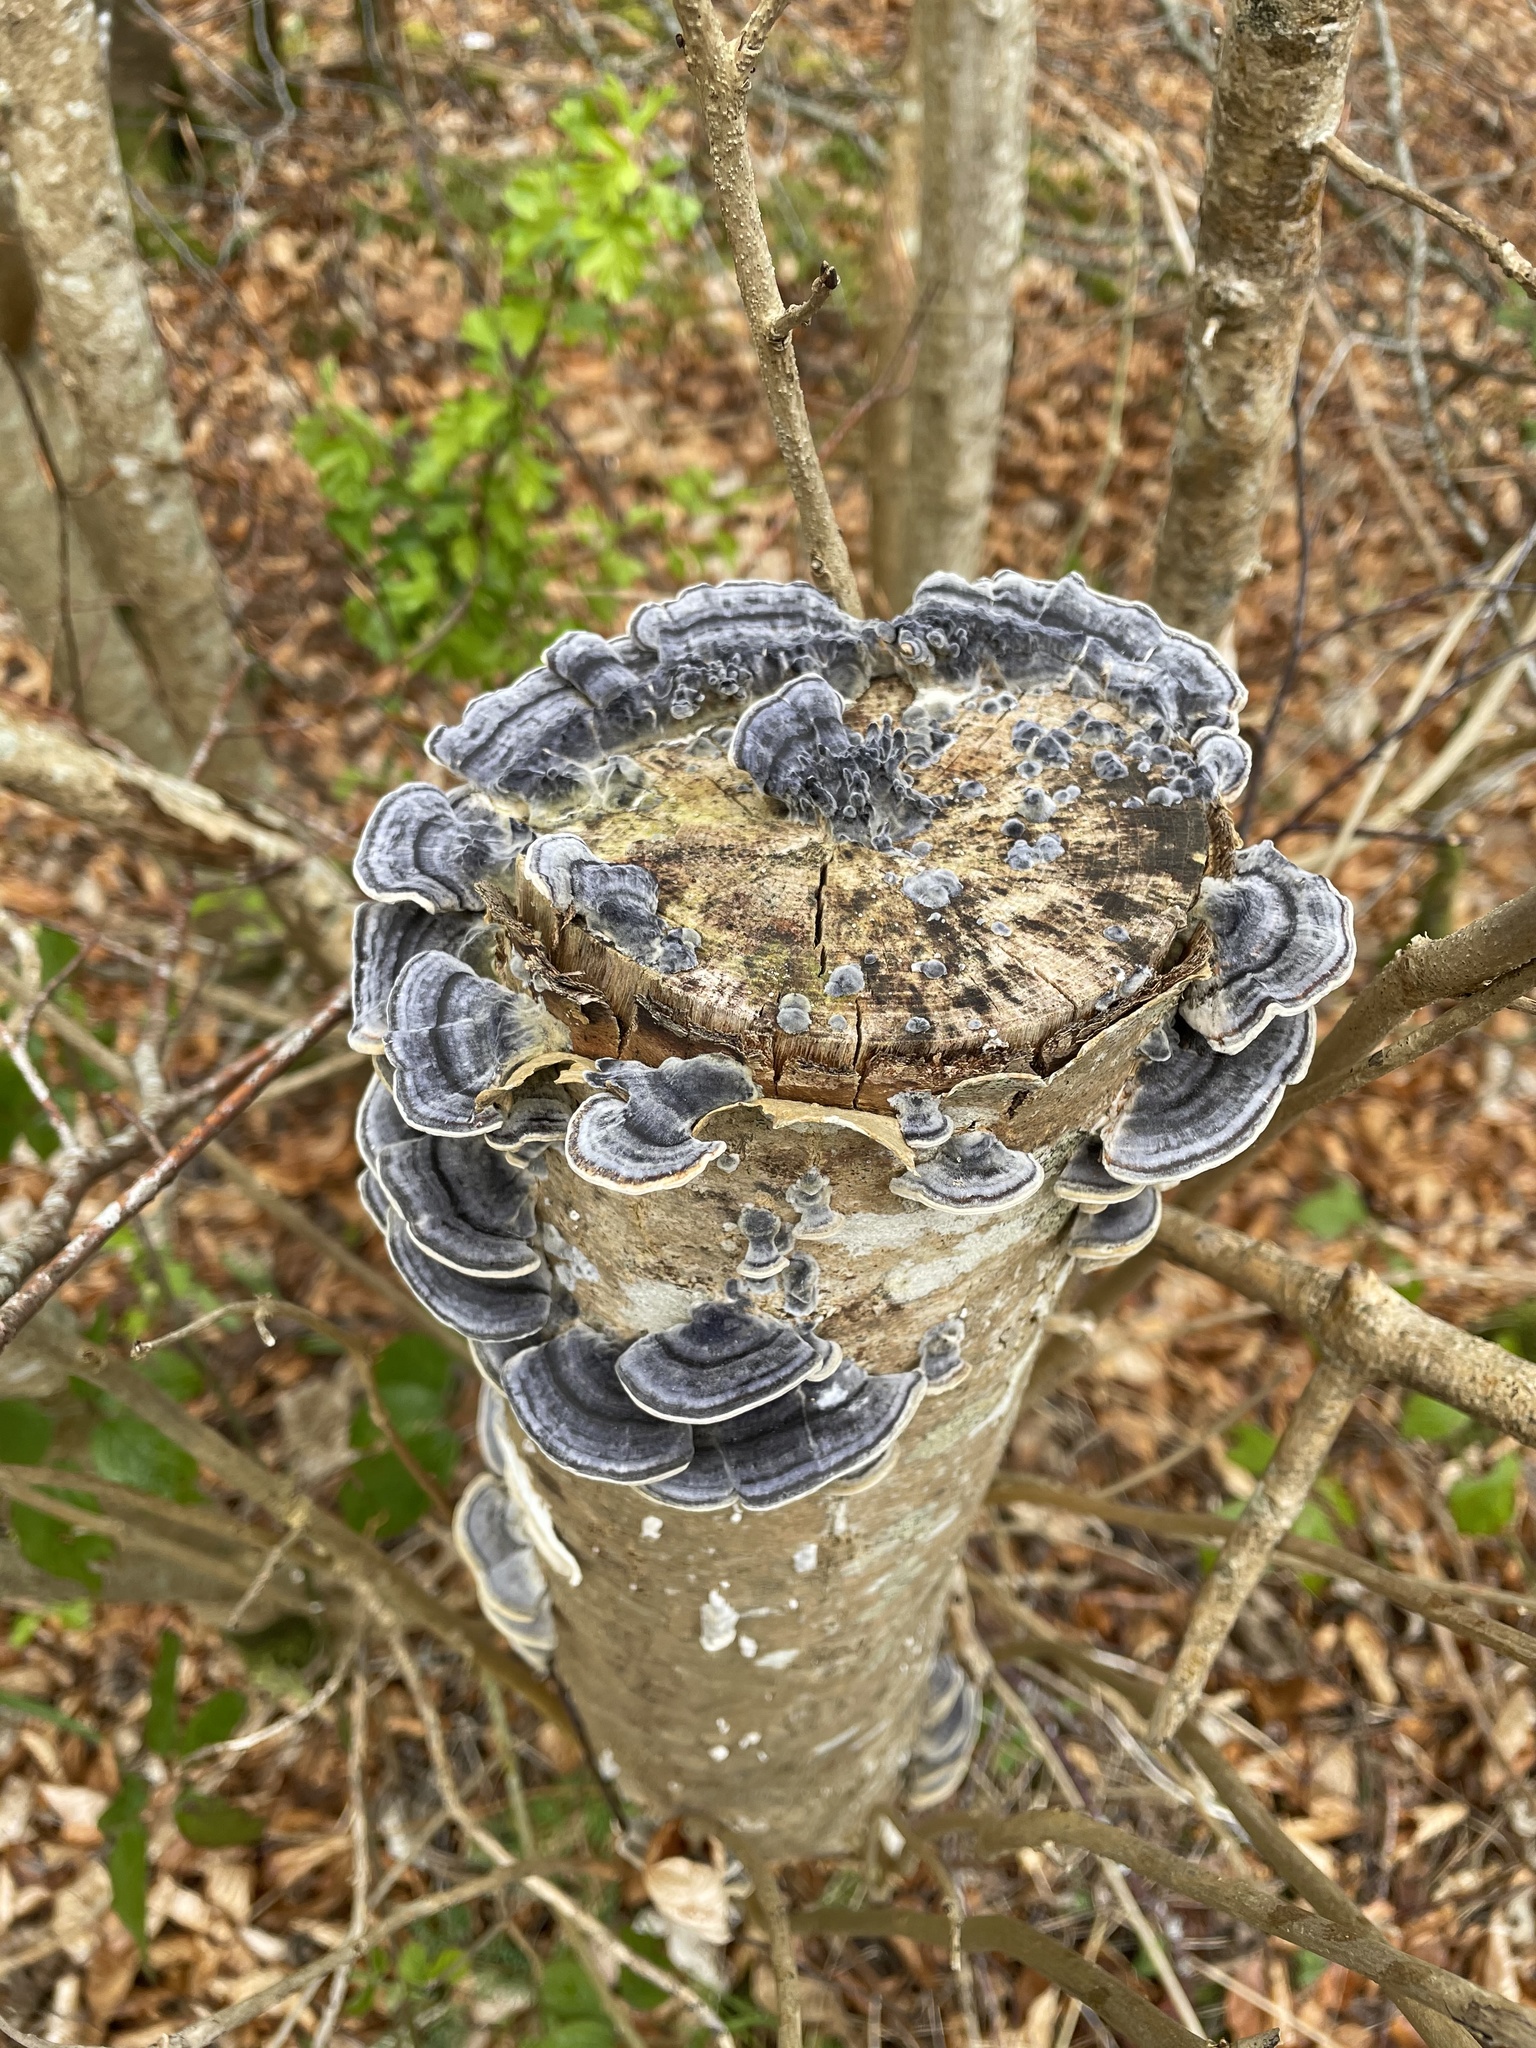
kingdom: Fungi
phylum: Basidiomycota
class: Agaricomycetes
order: Polyporales
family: Polyporaceae
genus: Trametes
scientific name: Trametes versicolor
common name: Turkeytail
